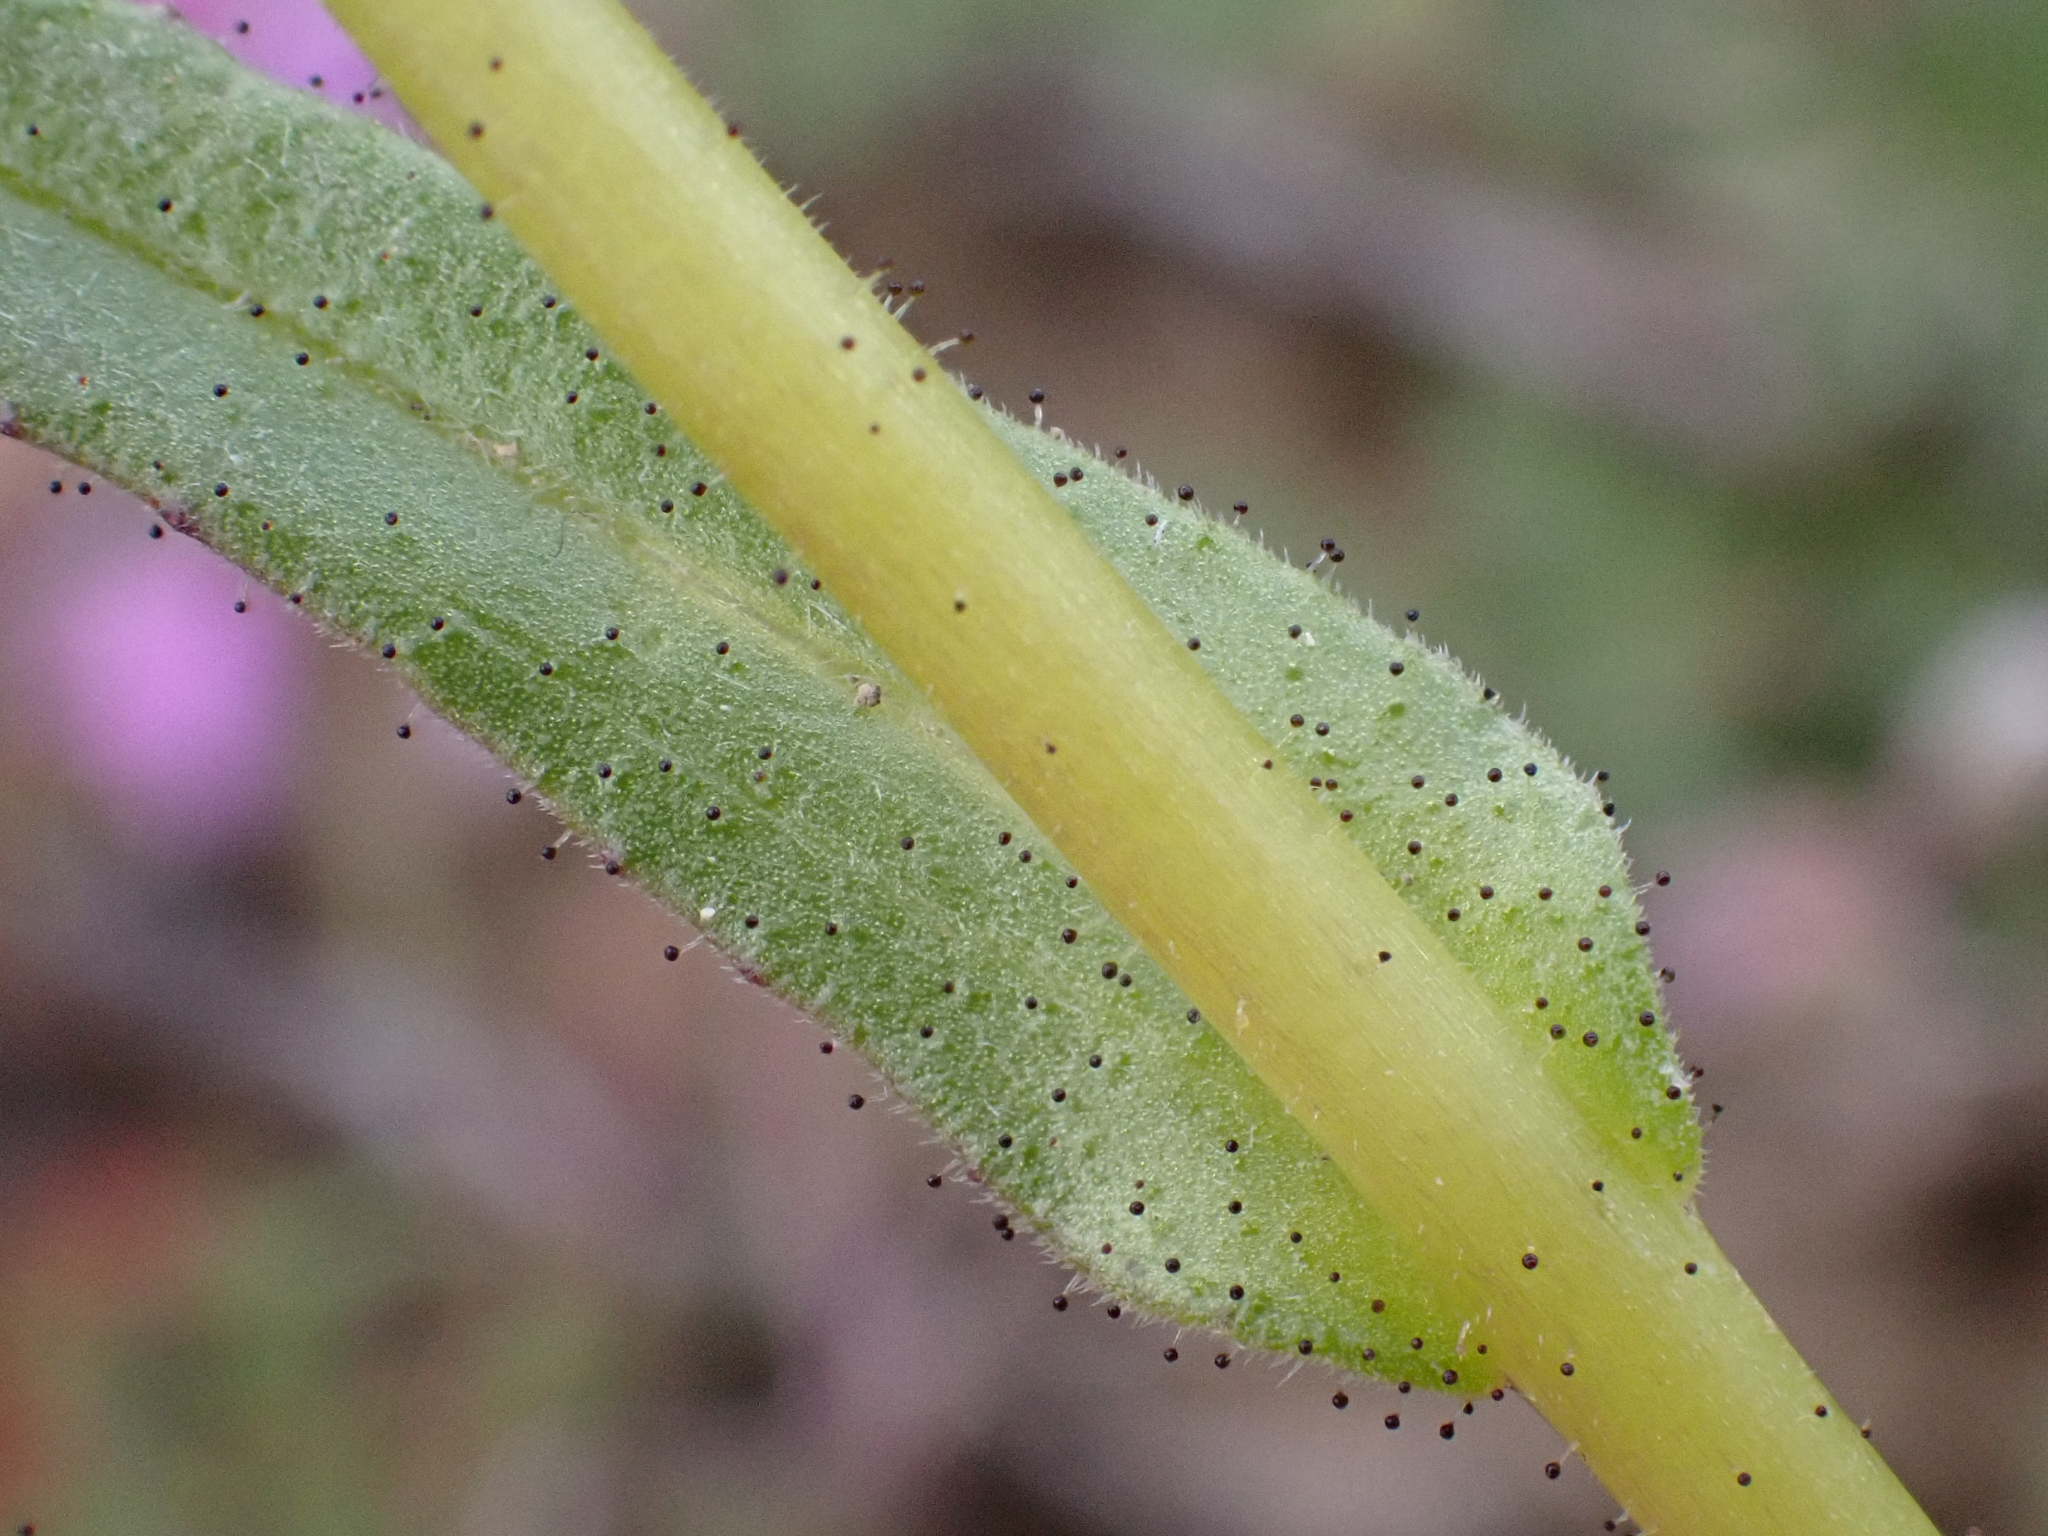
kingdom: Plantae
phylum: Tracheophyta
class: Magnoliopsida
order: Asterales
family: Asteraceae
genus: Layia
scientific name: Layia heterotricha
